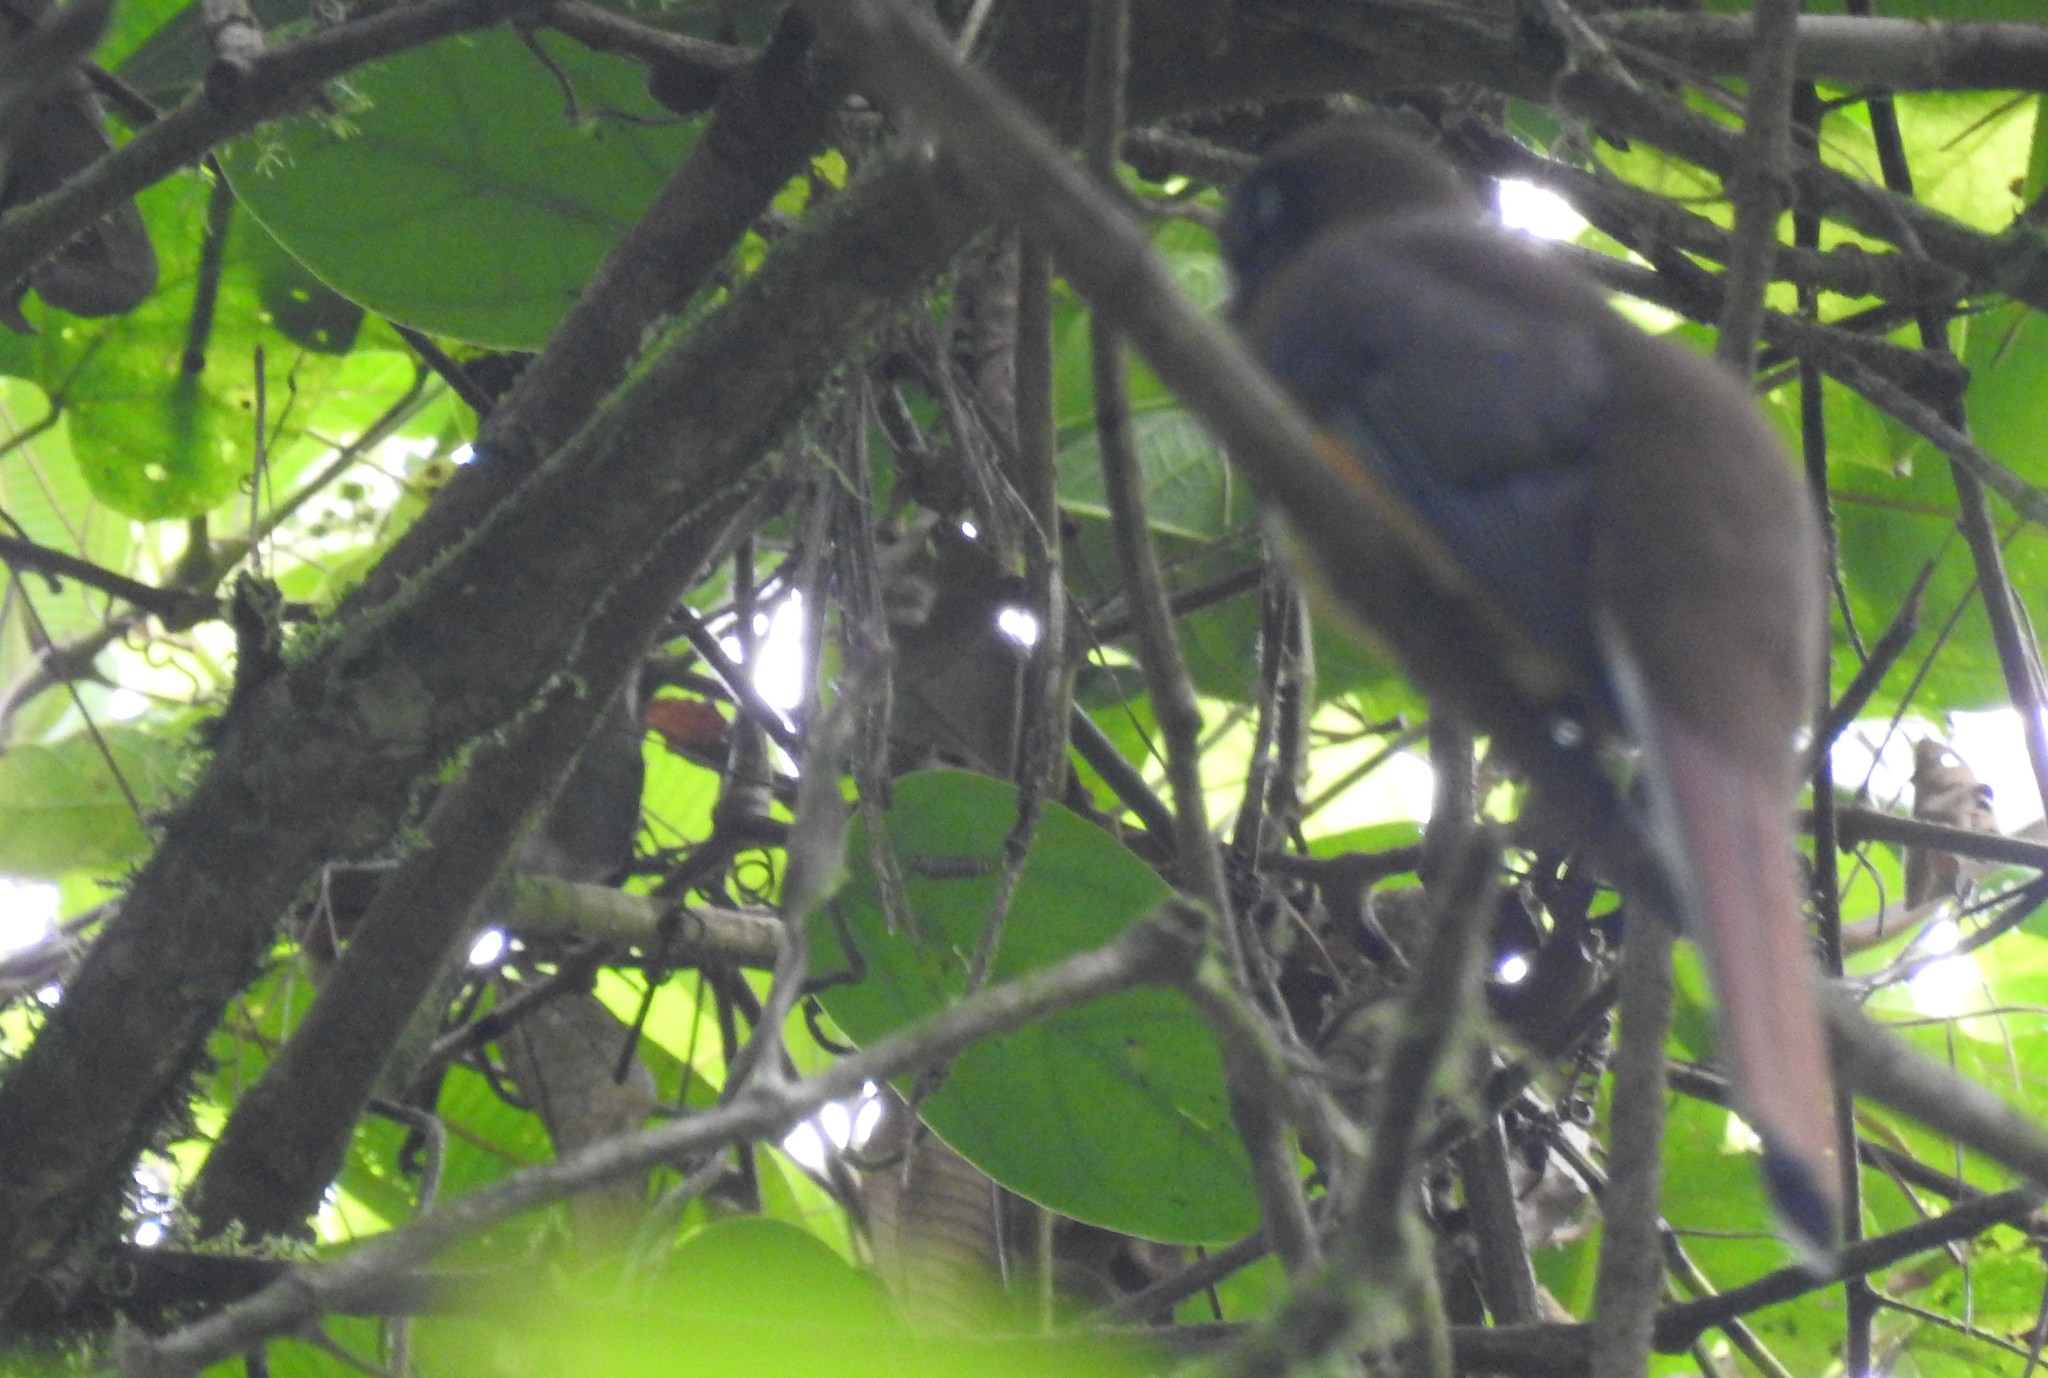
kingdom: Animalia
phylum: Chordata
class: Aves
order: Trogoniformes
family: Trogonidae
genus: Trogon
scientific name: Trogon rufus
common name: Black-throated trogon
